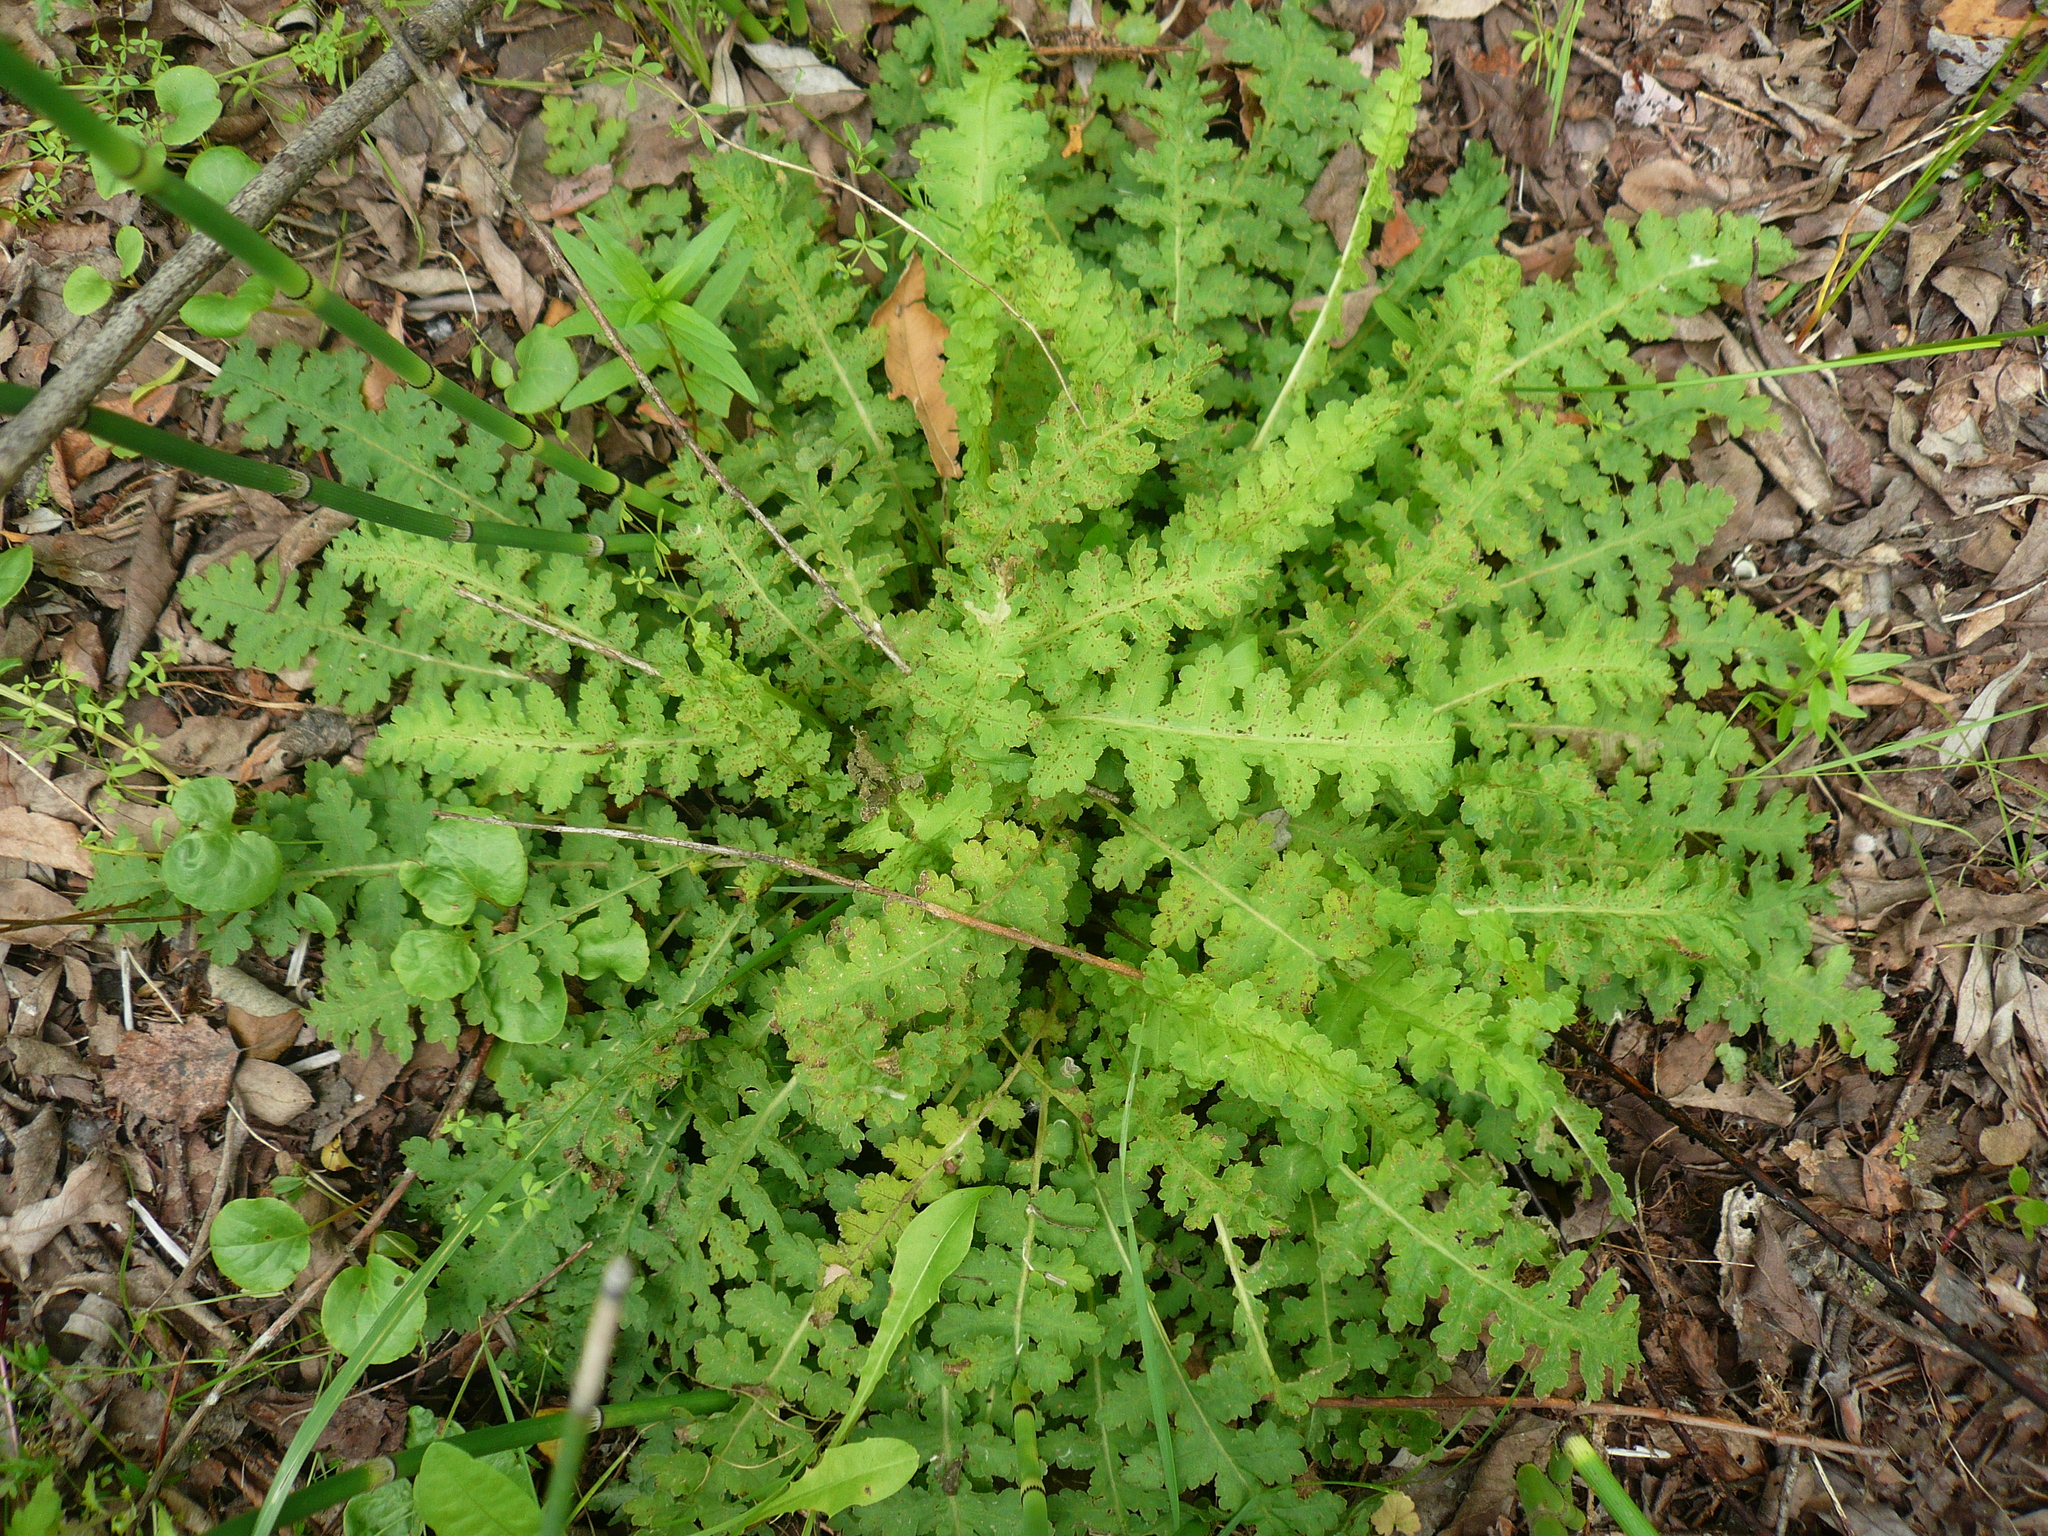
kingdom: Plantae
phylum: Tracheophyta
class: Magnoliopsida
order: Lamiales
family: Orobanchaceae
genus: Pedicularis
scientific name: Pedicularis sceptrum-carolinum
